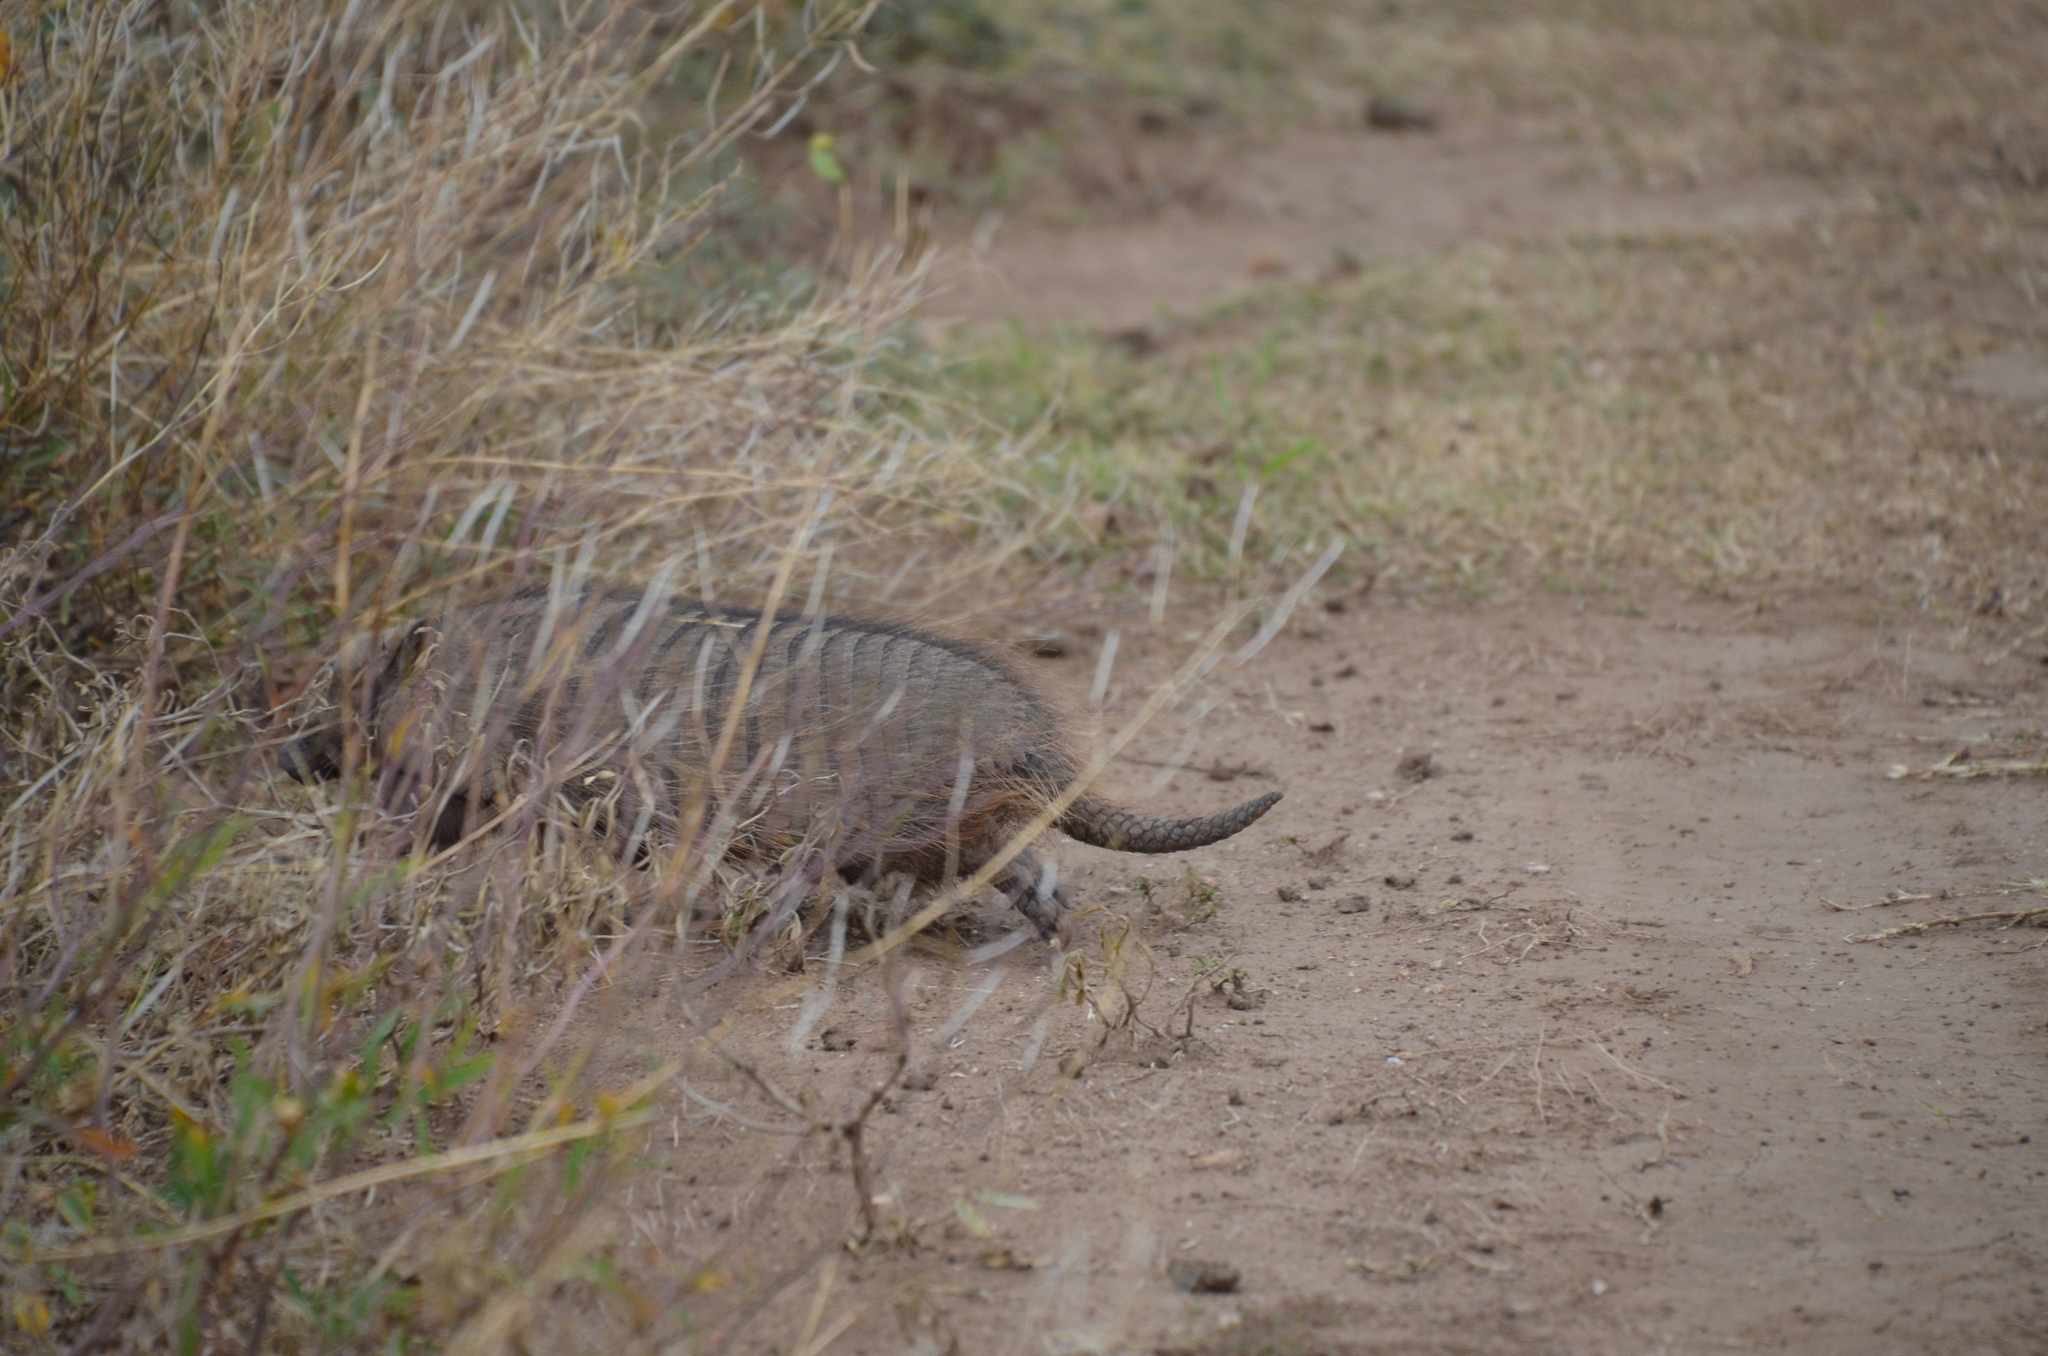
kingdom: Animalia
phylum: Chordata
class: Mammalia
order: Cingulata
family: Dasypodidae
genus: Chaetophractus
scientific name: Chaetophractus villosus
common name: Big hairy armadillo
